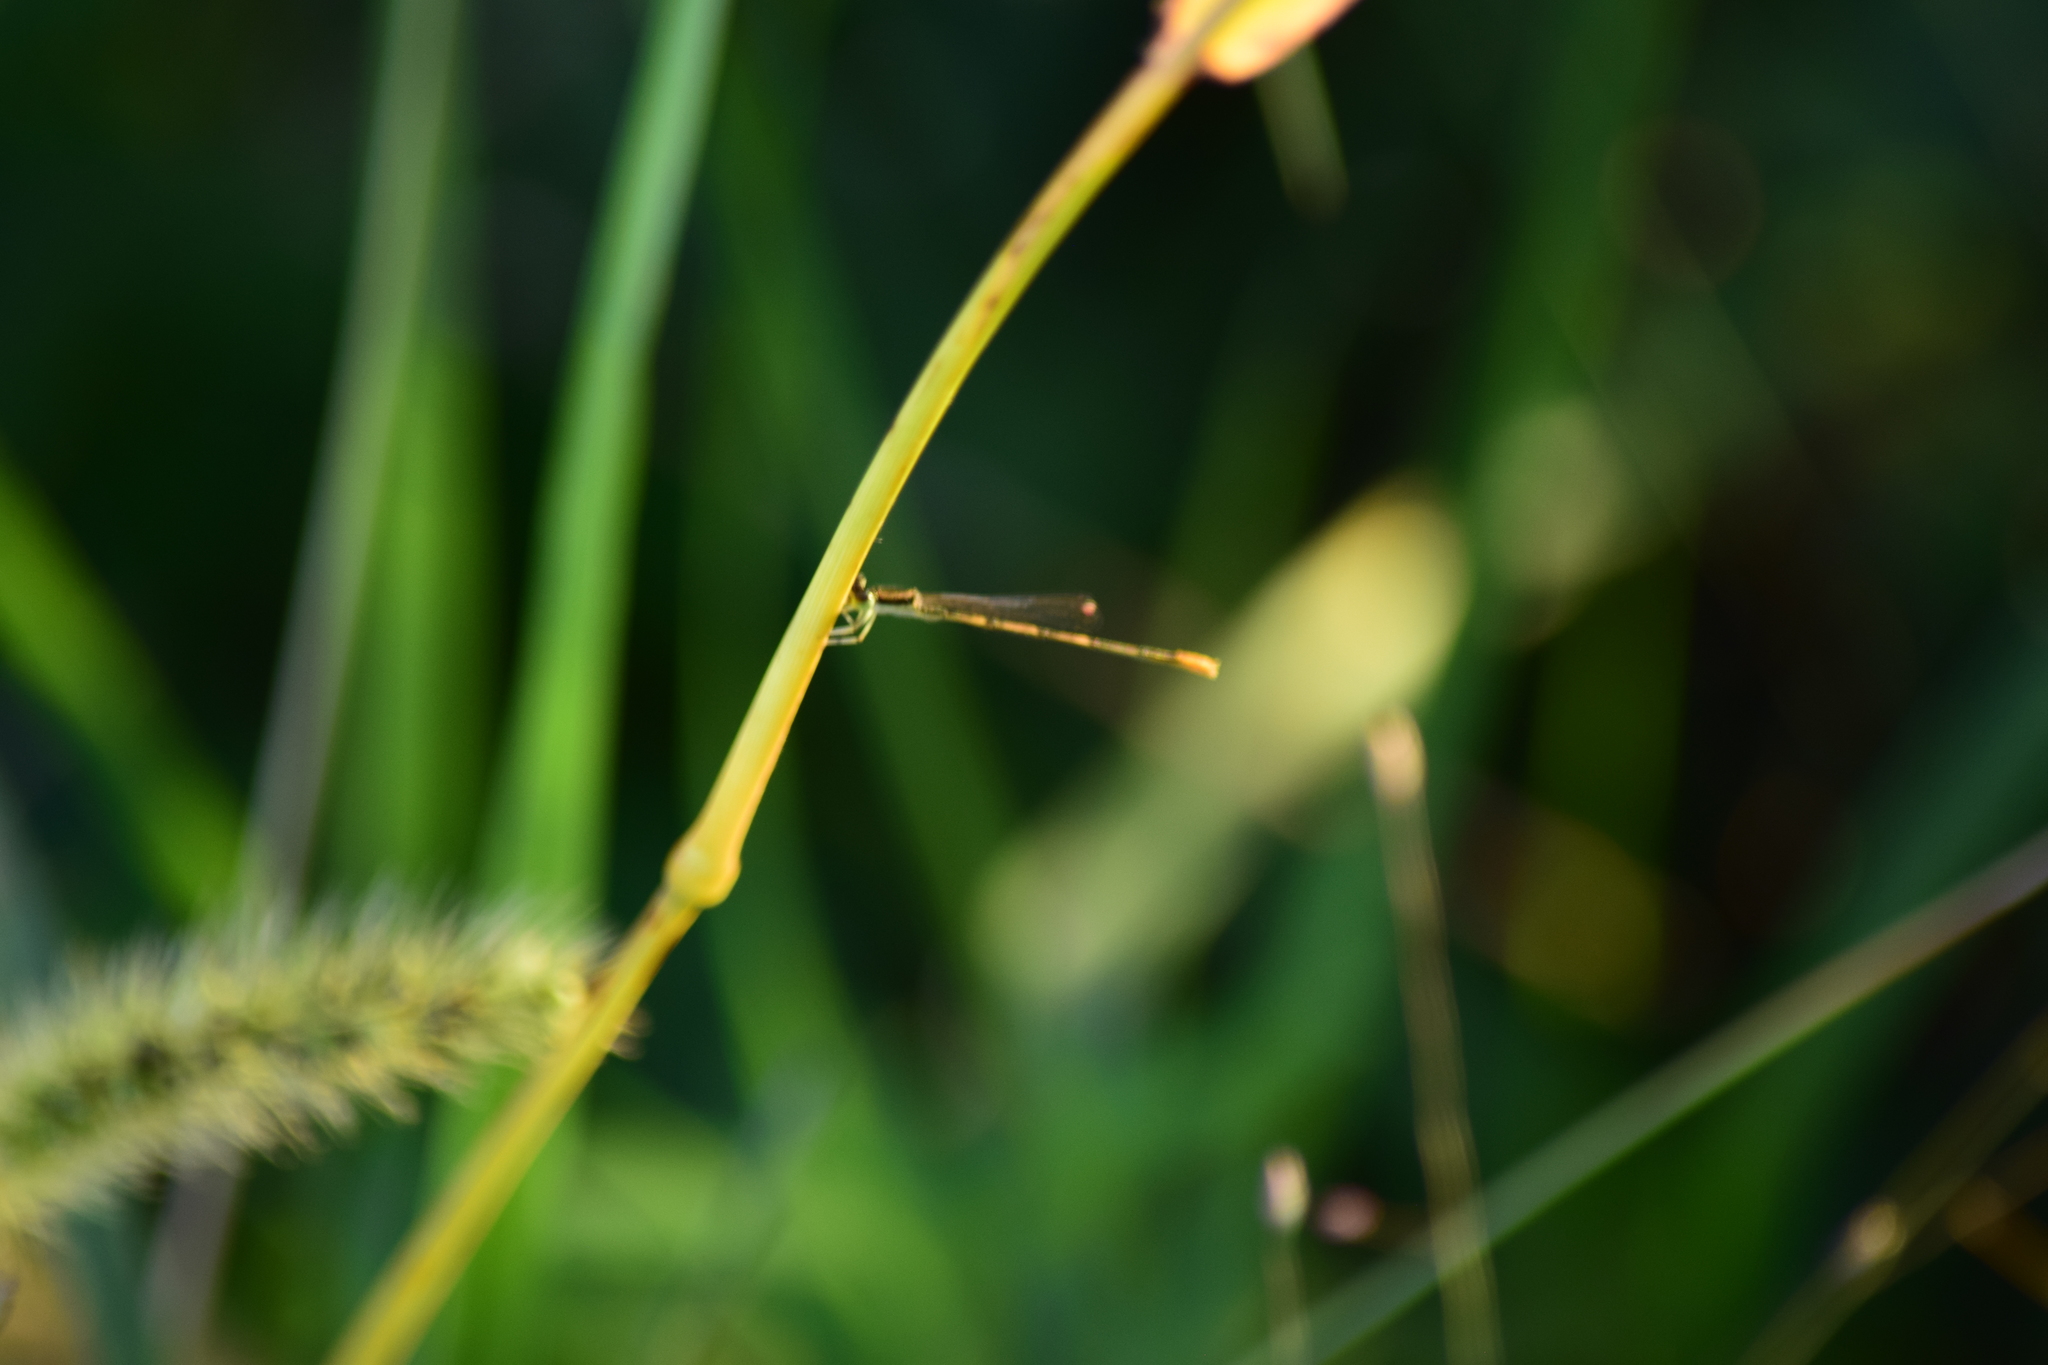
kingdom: Animalia
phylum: Arthropoda
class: Insecta
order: Odonata
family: Coenagrionidae
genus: Ischnura
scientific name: Ischnura hastata
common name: Citrine forktail
